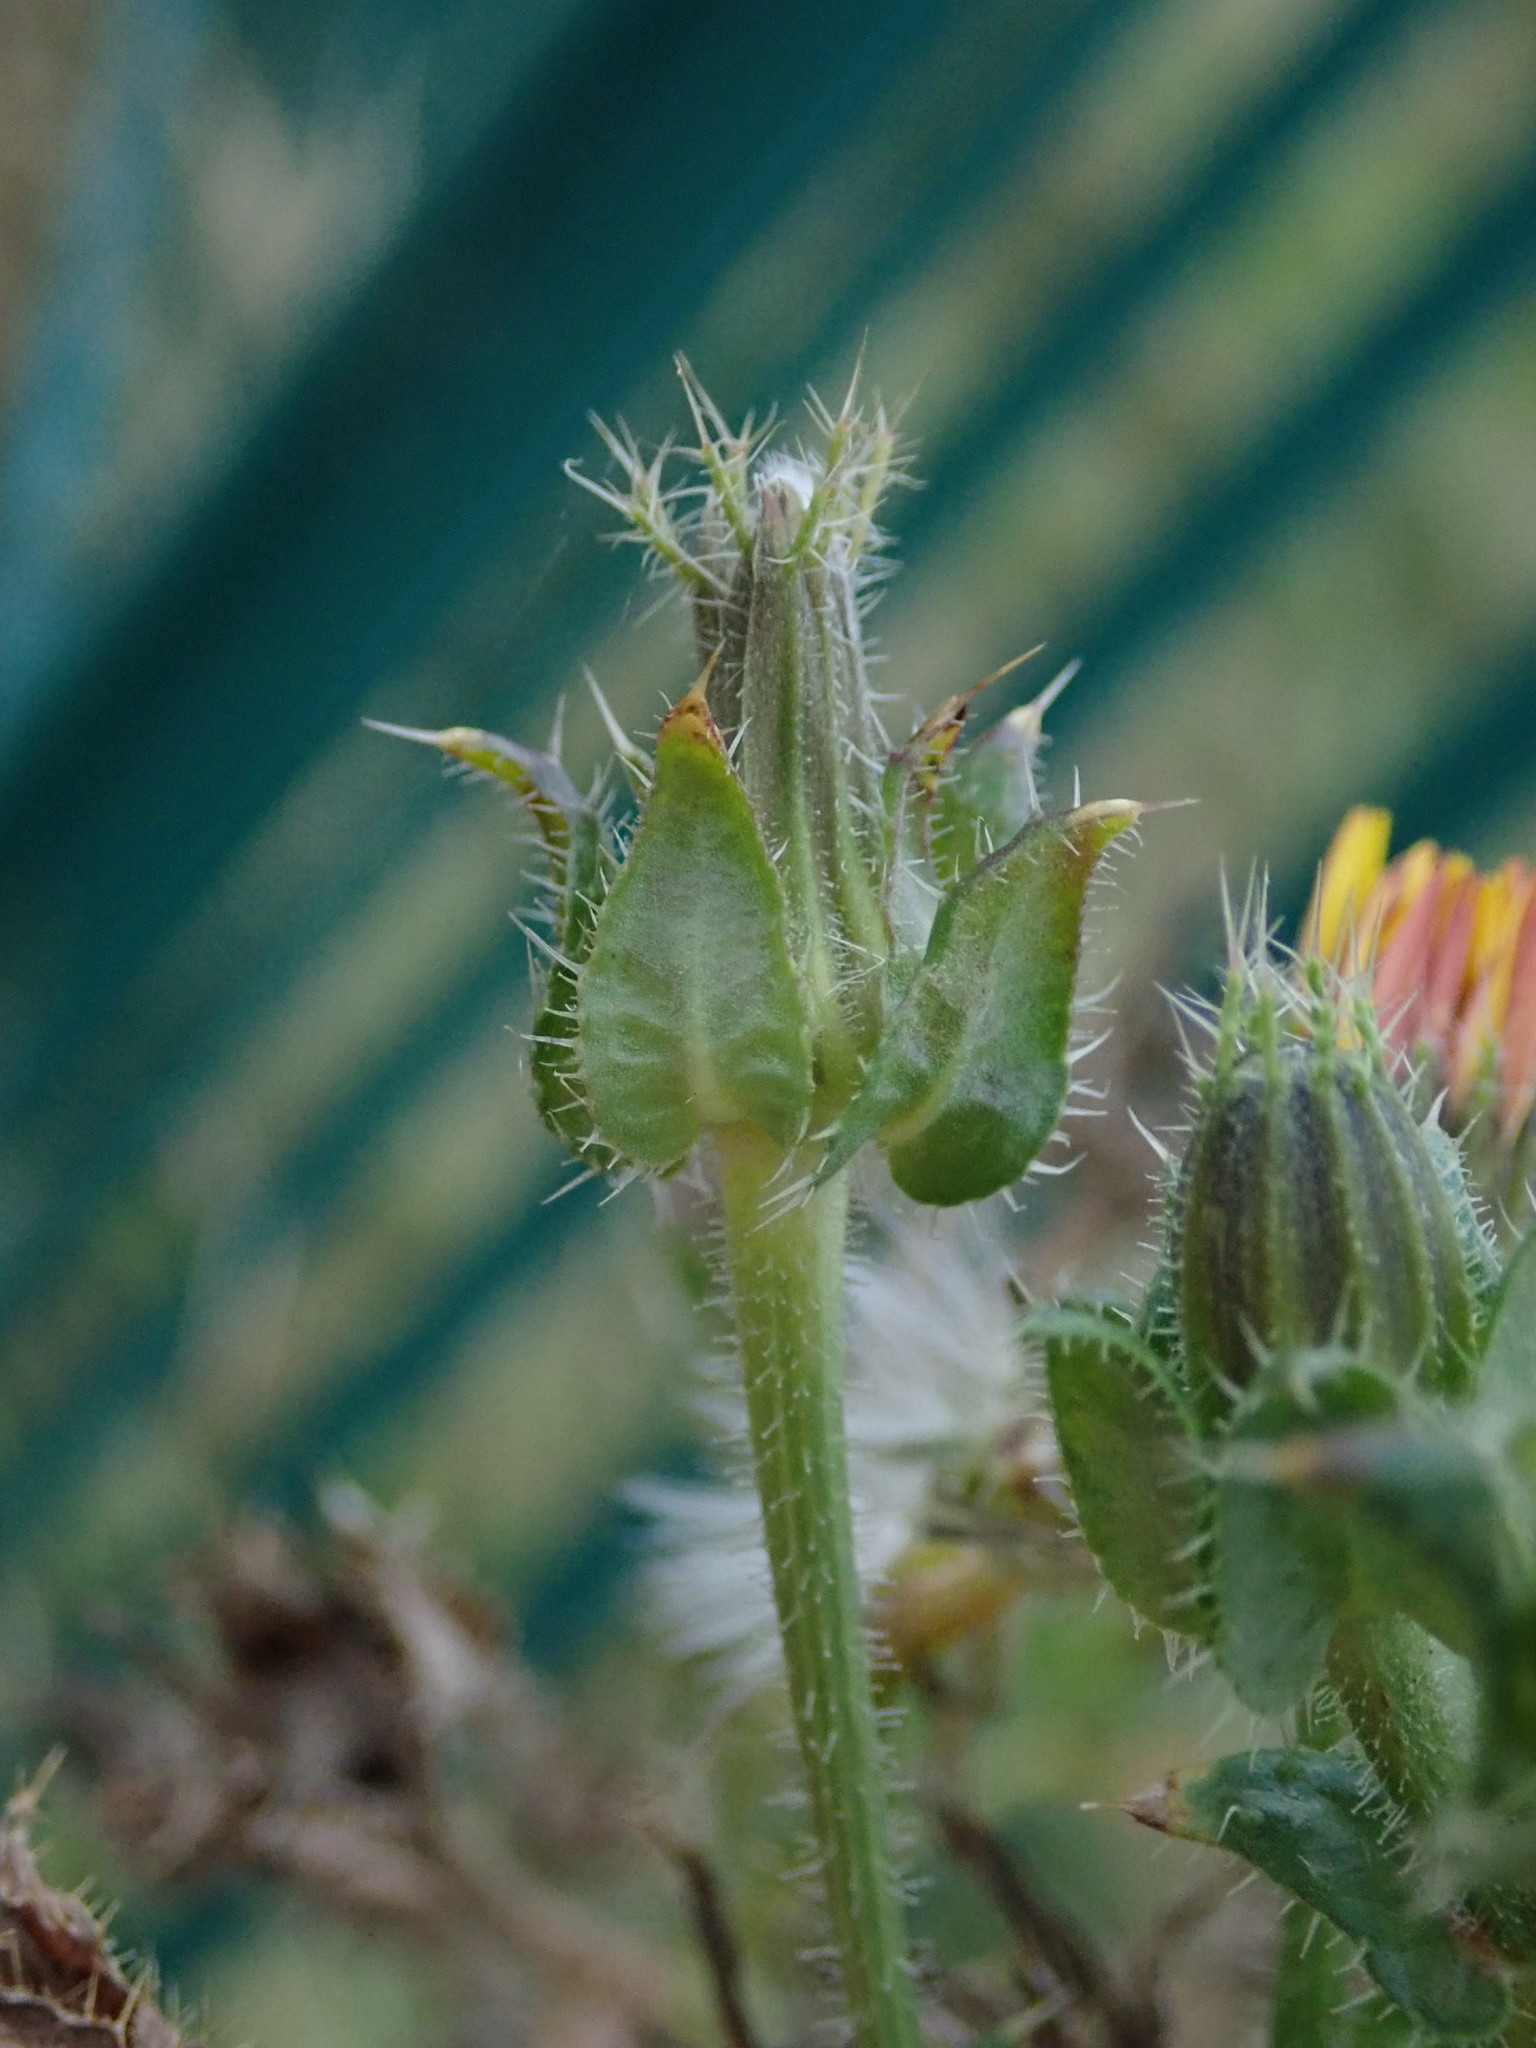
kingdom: Plantae
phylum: Tracheophyta
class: Magnoliopsida
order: Asterales
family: Asteraceae
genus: Helminthotheca
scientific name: Helminthotheca echioides
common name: Ox-tongue
